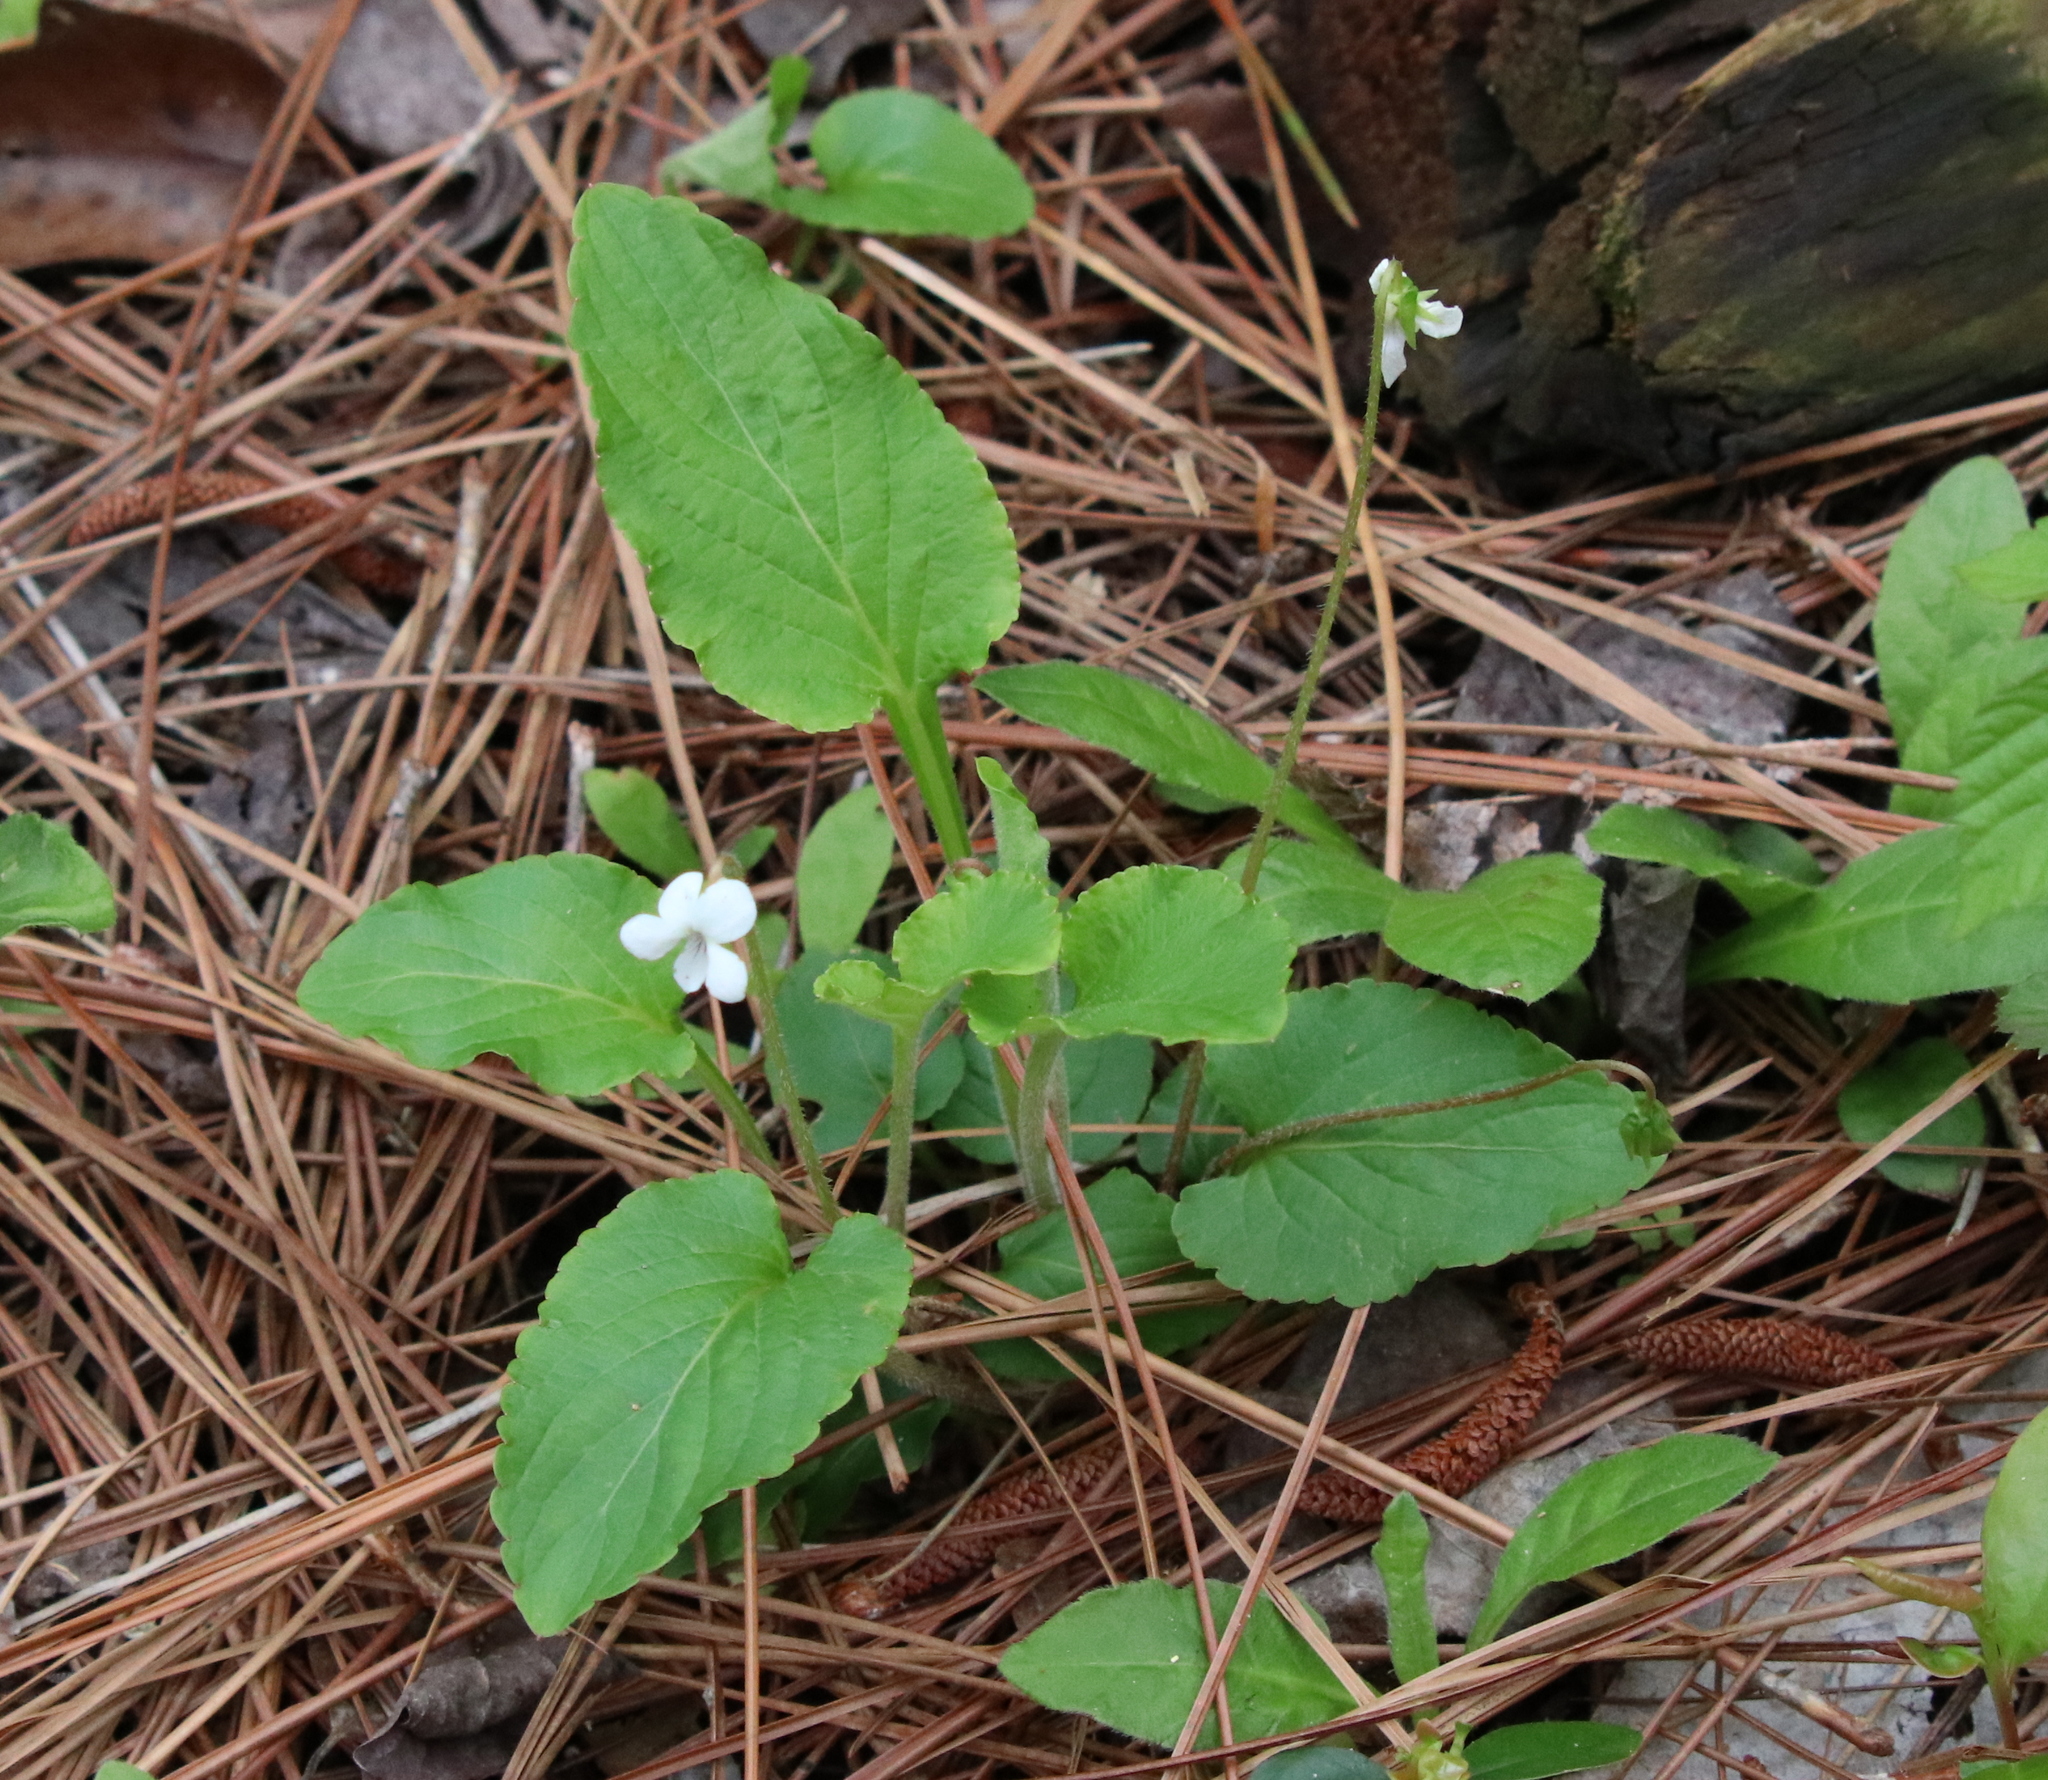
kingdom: Plantae
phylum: Tracheophyta
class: Magnoliopsida
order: Malpighiales
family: Violaceae
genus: Viola
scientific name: Viola primulifolia
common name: Primrose-leaf violet
